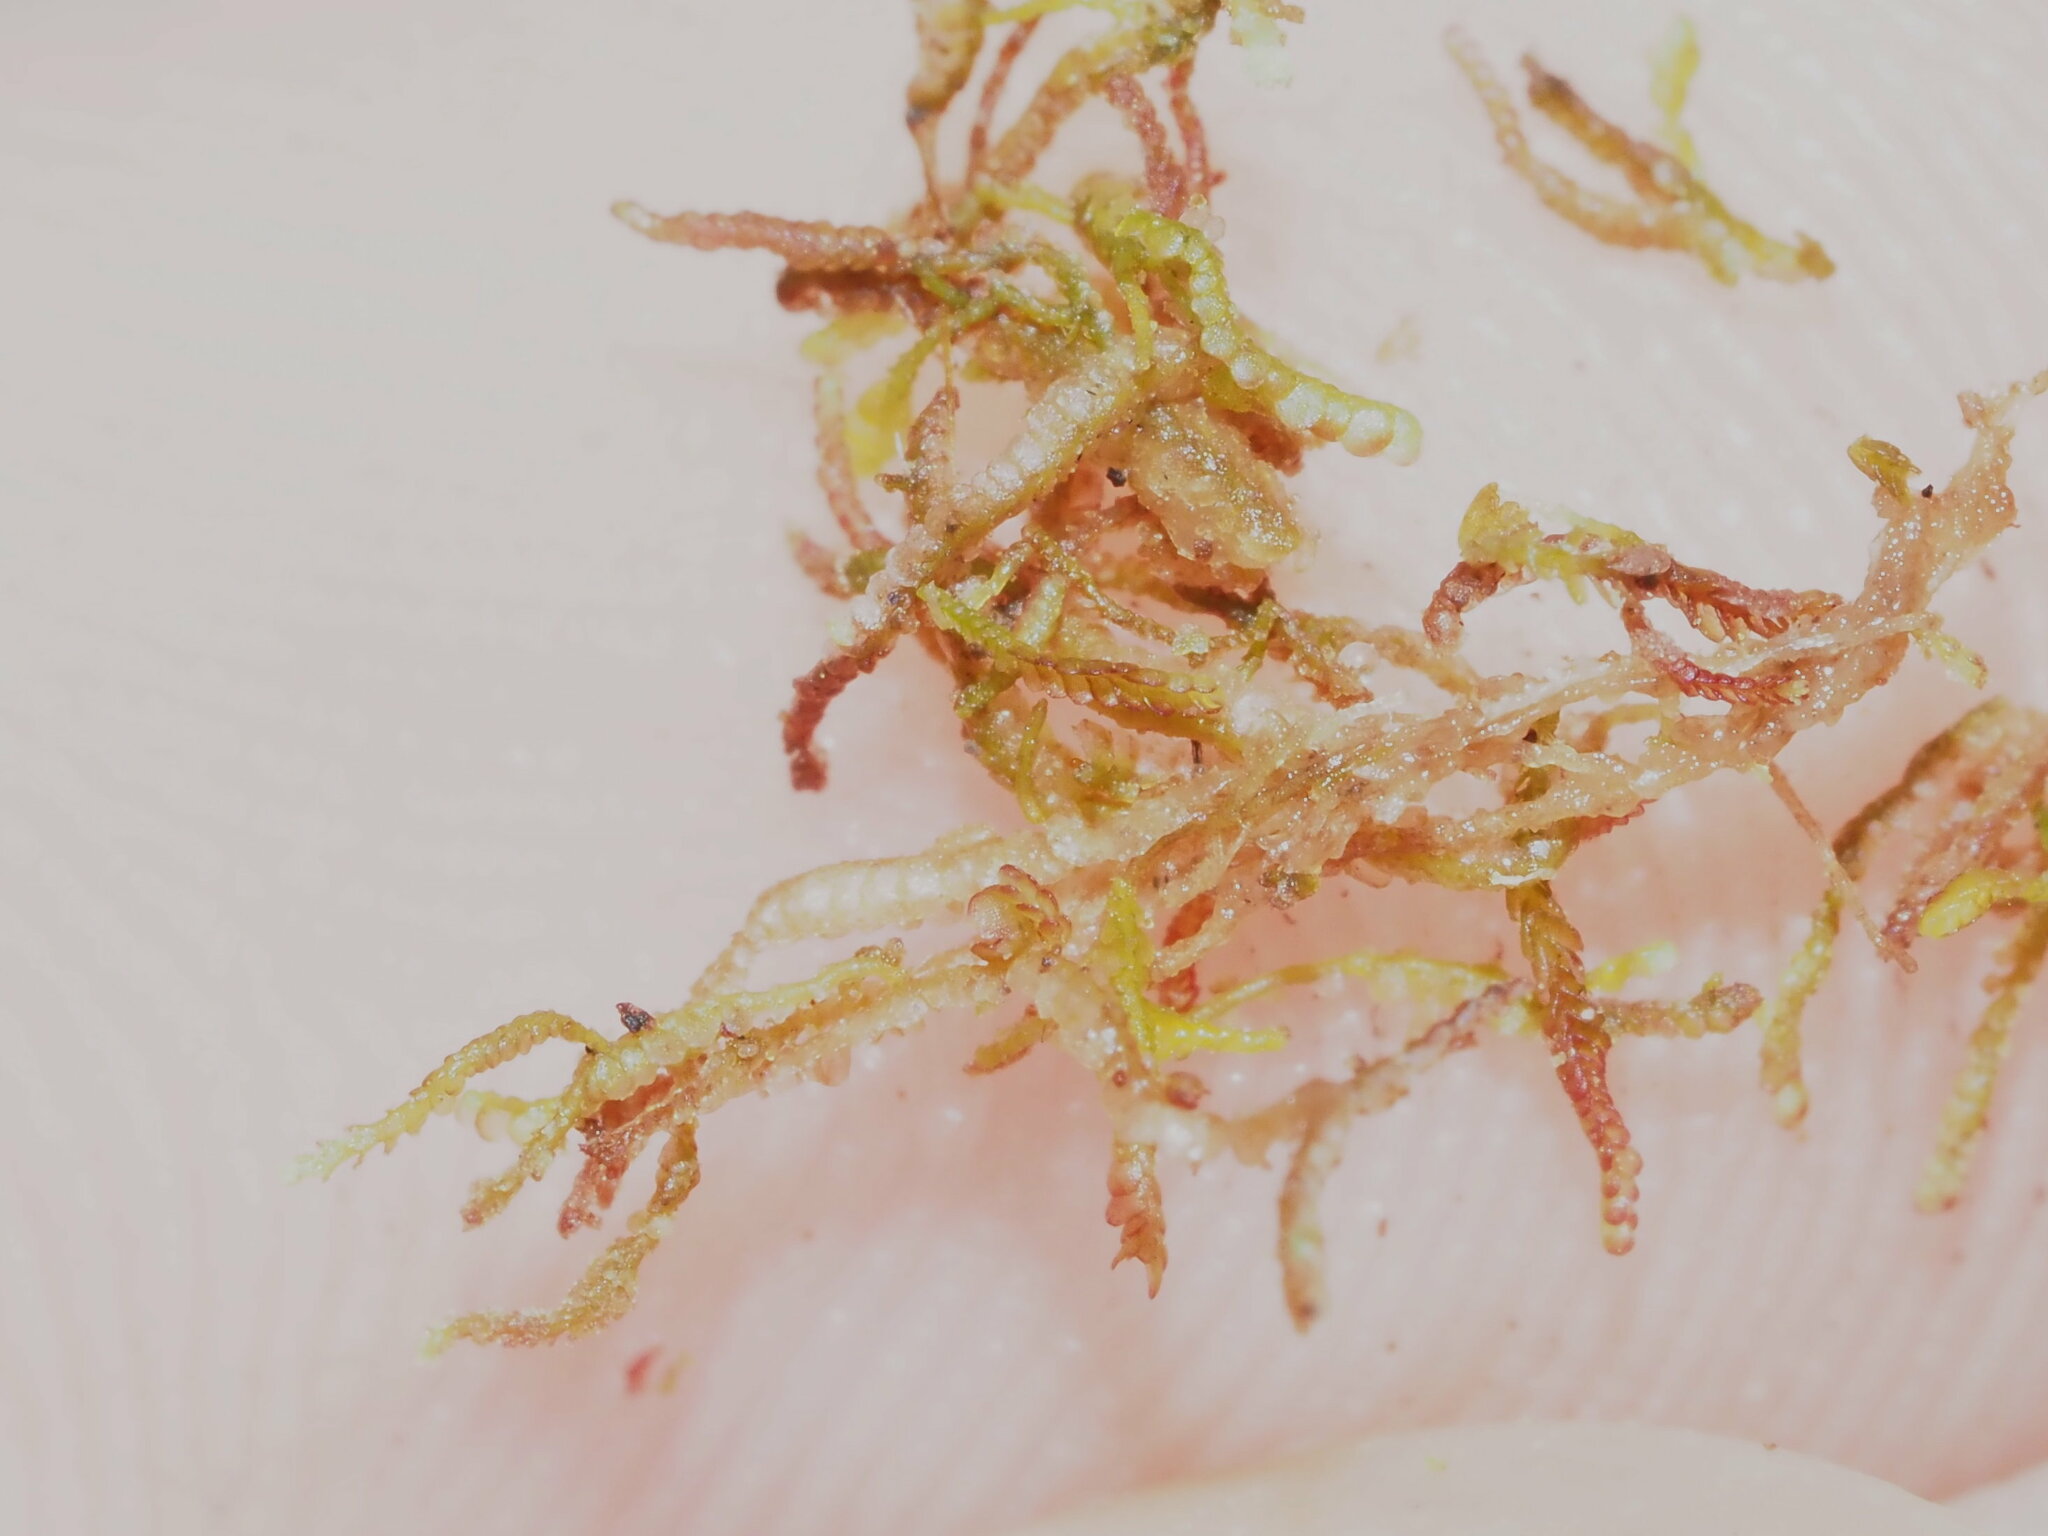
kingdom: Plantae
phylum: Marchantiophyta
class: Jungermanniopsida
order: Jungermanniales
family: Cephaloziaceae
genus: Odontoschisma
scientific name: Odontoschisma denudatum
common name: Matchstick flapwort
